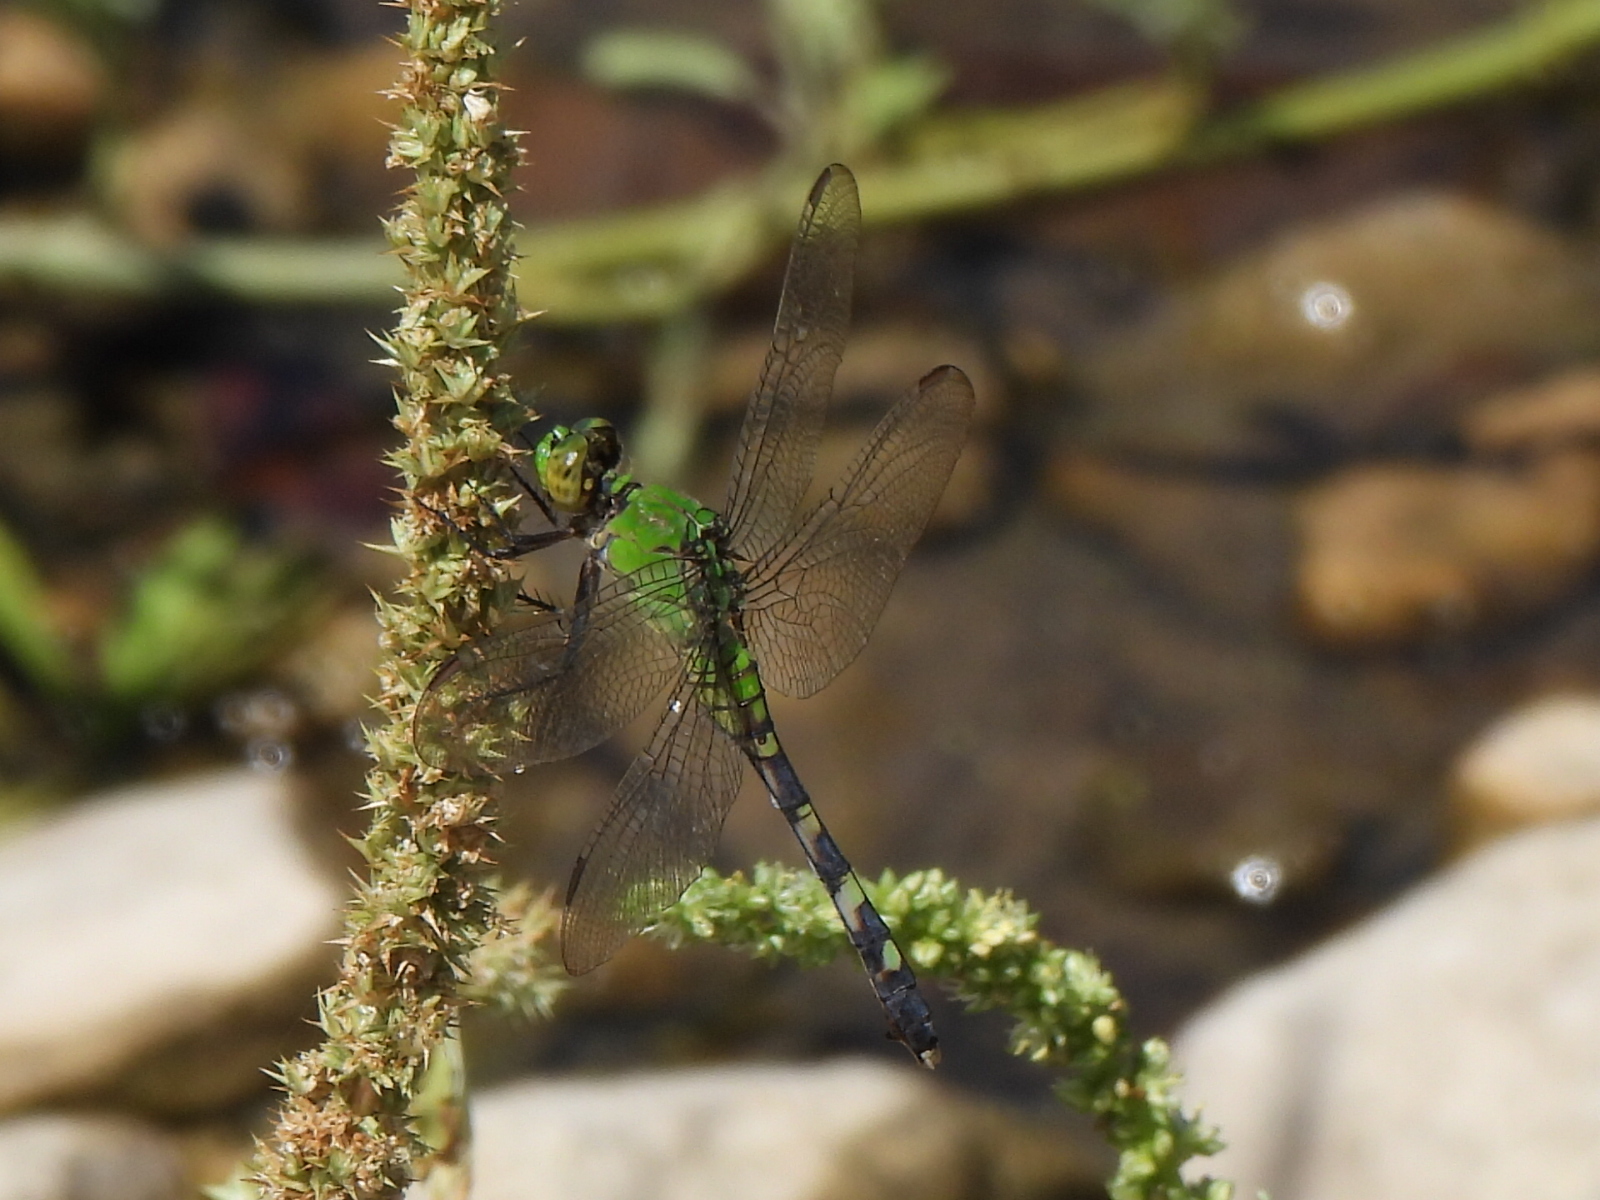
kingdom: Animalia
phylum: Arthropoda
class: Insecta
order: Odonata
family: Libellulidae
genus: Erythemis
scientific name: Erythemis simplicicollis
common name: Eastern pondhawk
